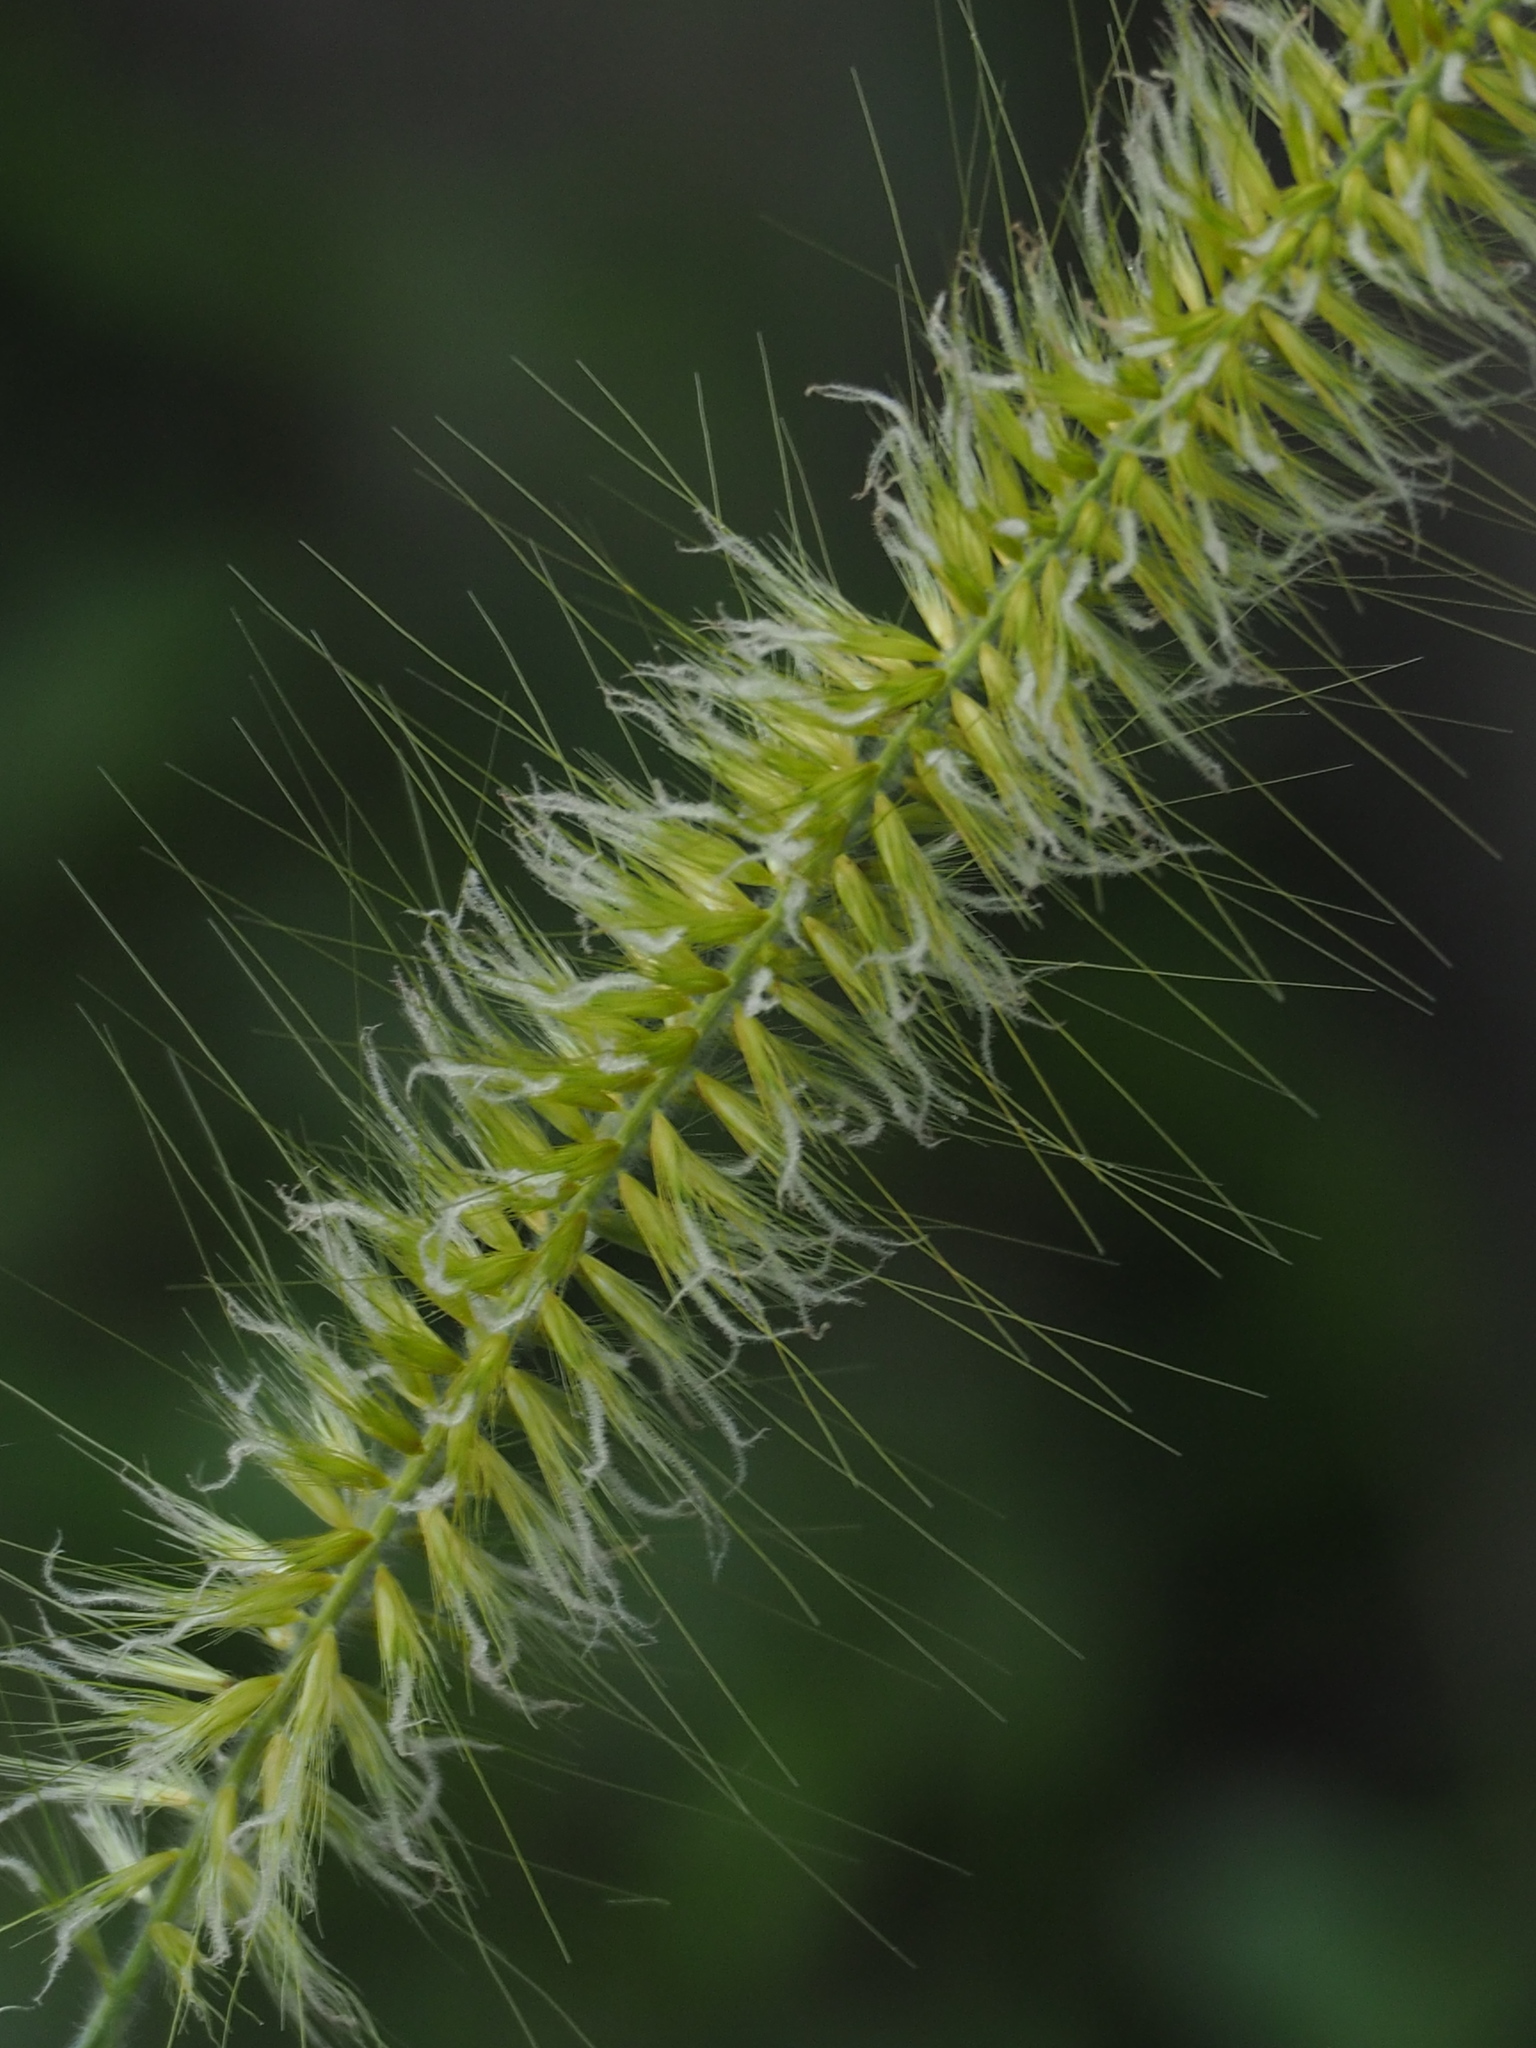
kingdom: Plantae
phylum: Tracheophyta
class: Liliopsida
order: Poales
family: Poaceae
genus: Cenchrus
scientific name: Cenchrus purpureus
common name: Elephant grass
